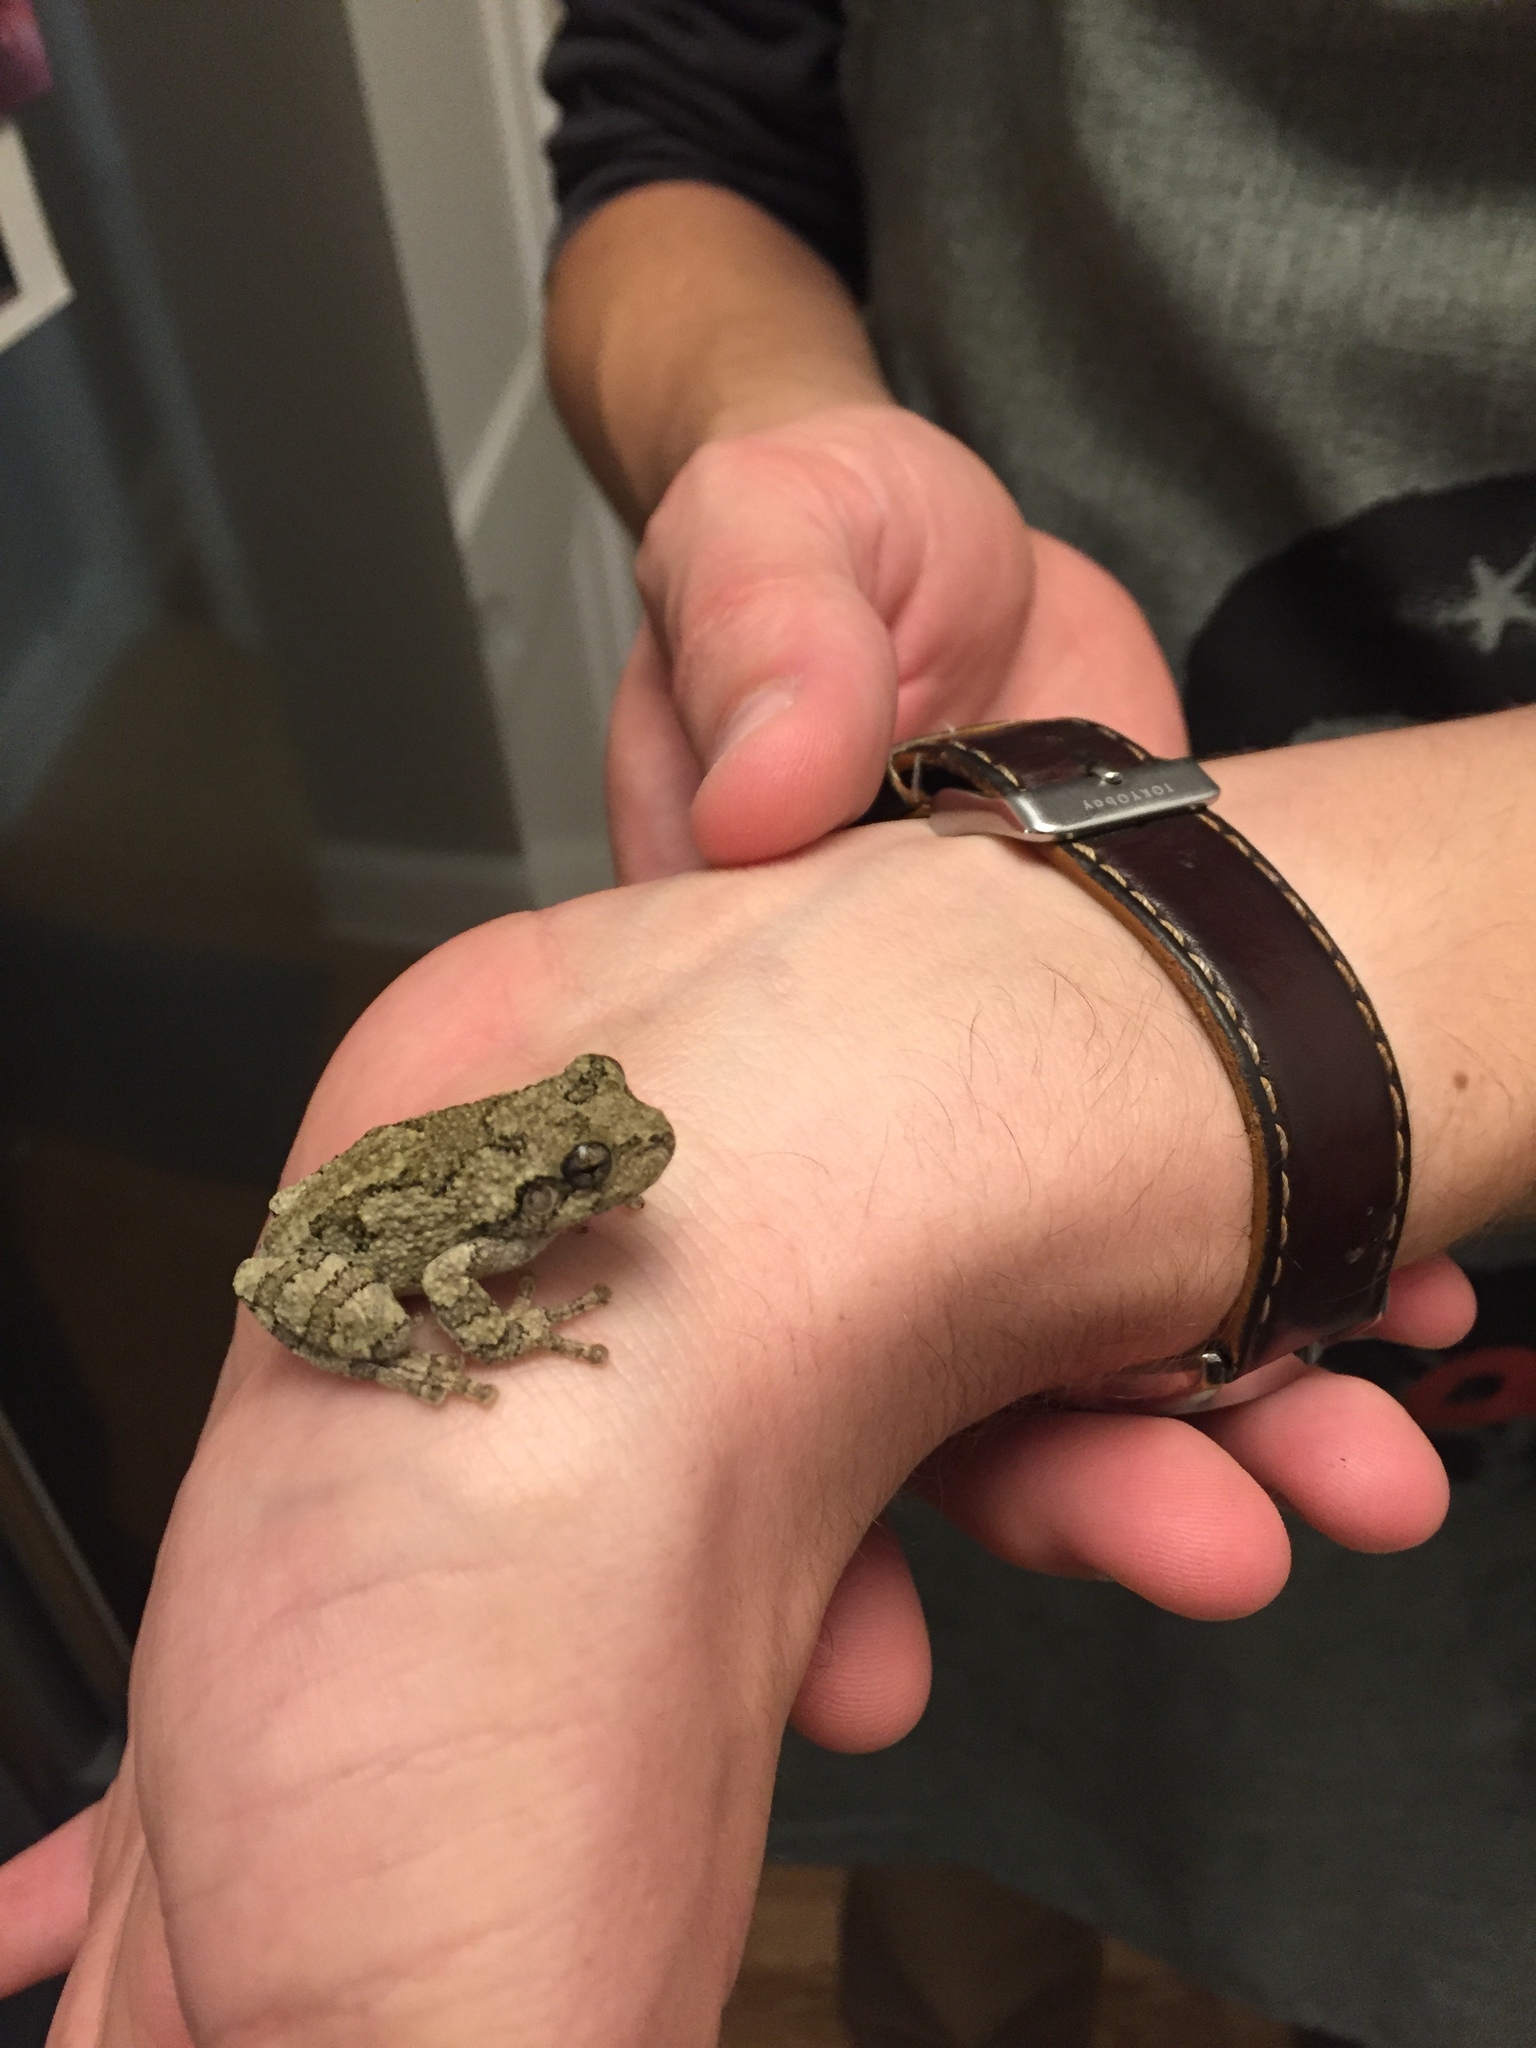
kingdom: Animalia
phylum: Chordata
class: Amphibia
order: Anura
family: Hylidae
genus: Hyla
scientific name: Hyla
